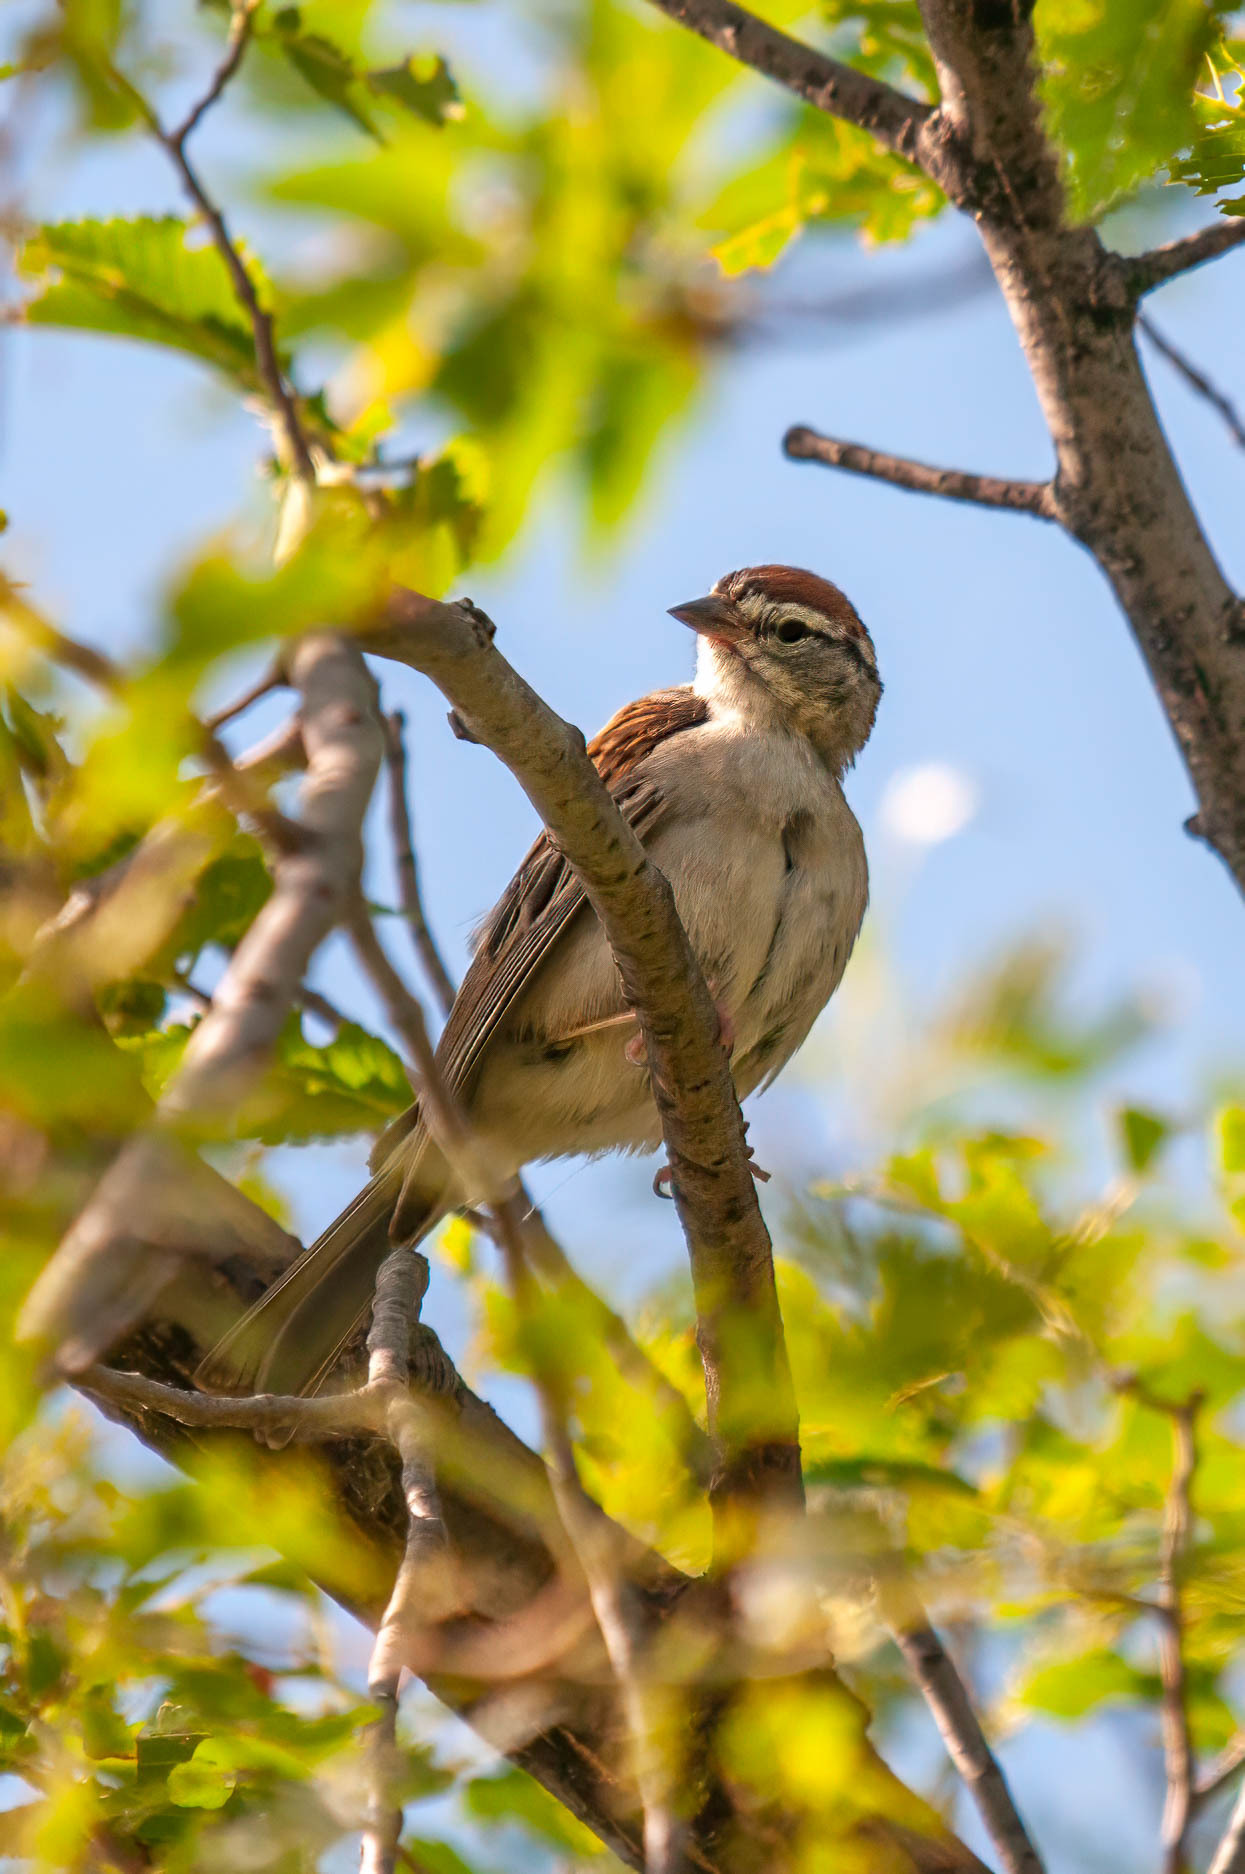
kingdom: Animalia
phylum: Chordata
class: Aves
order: Passeriformes
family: Passerellidae
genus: Spizella
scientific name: Spizella passerina
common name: Chipping sparrow
